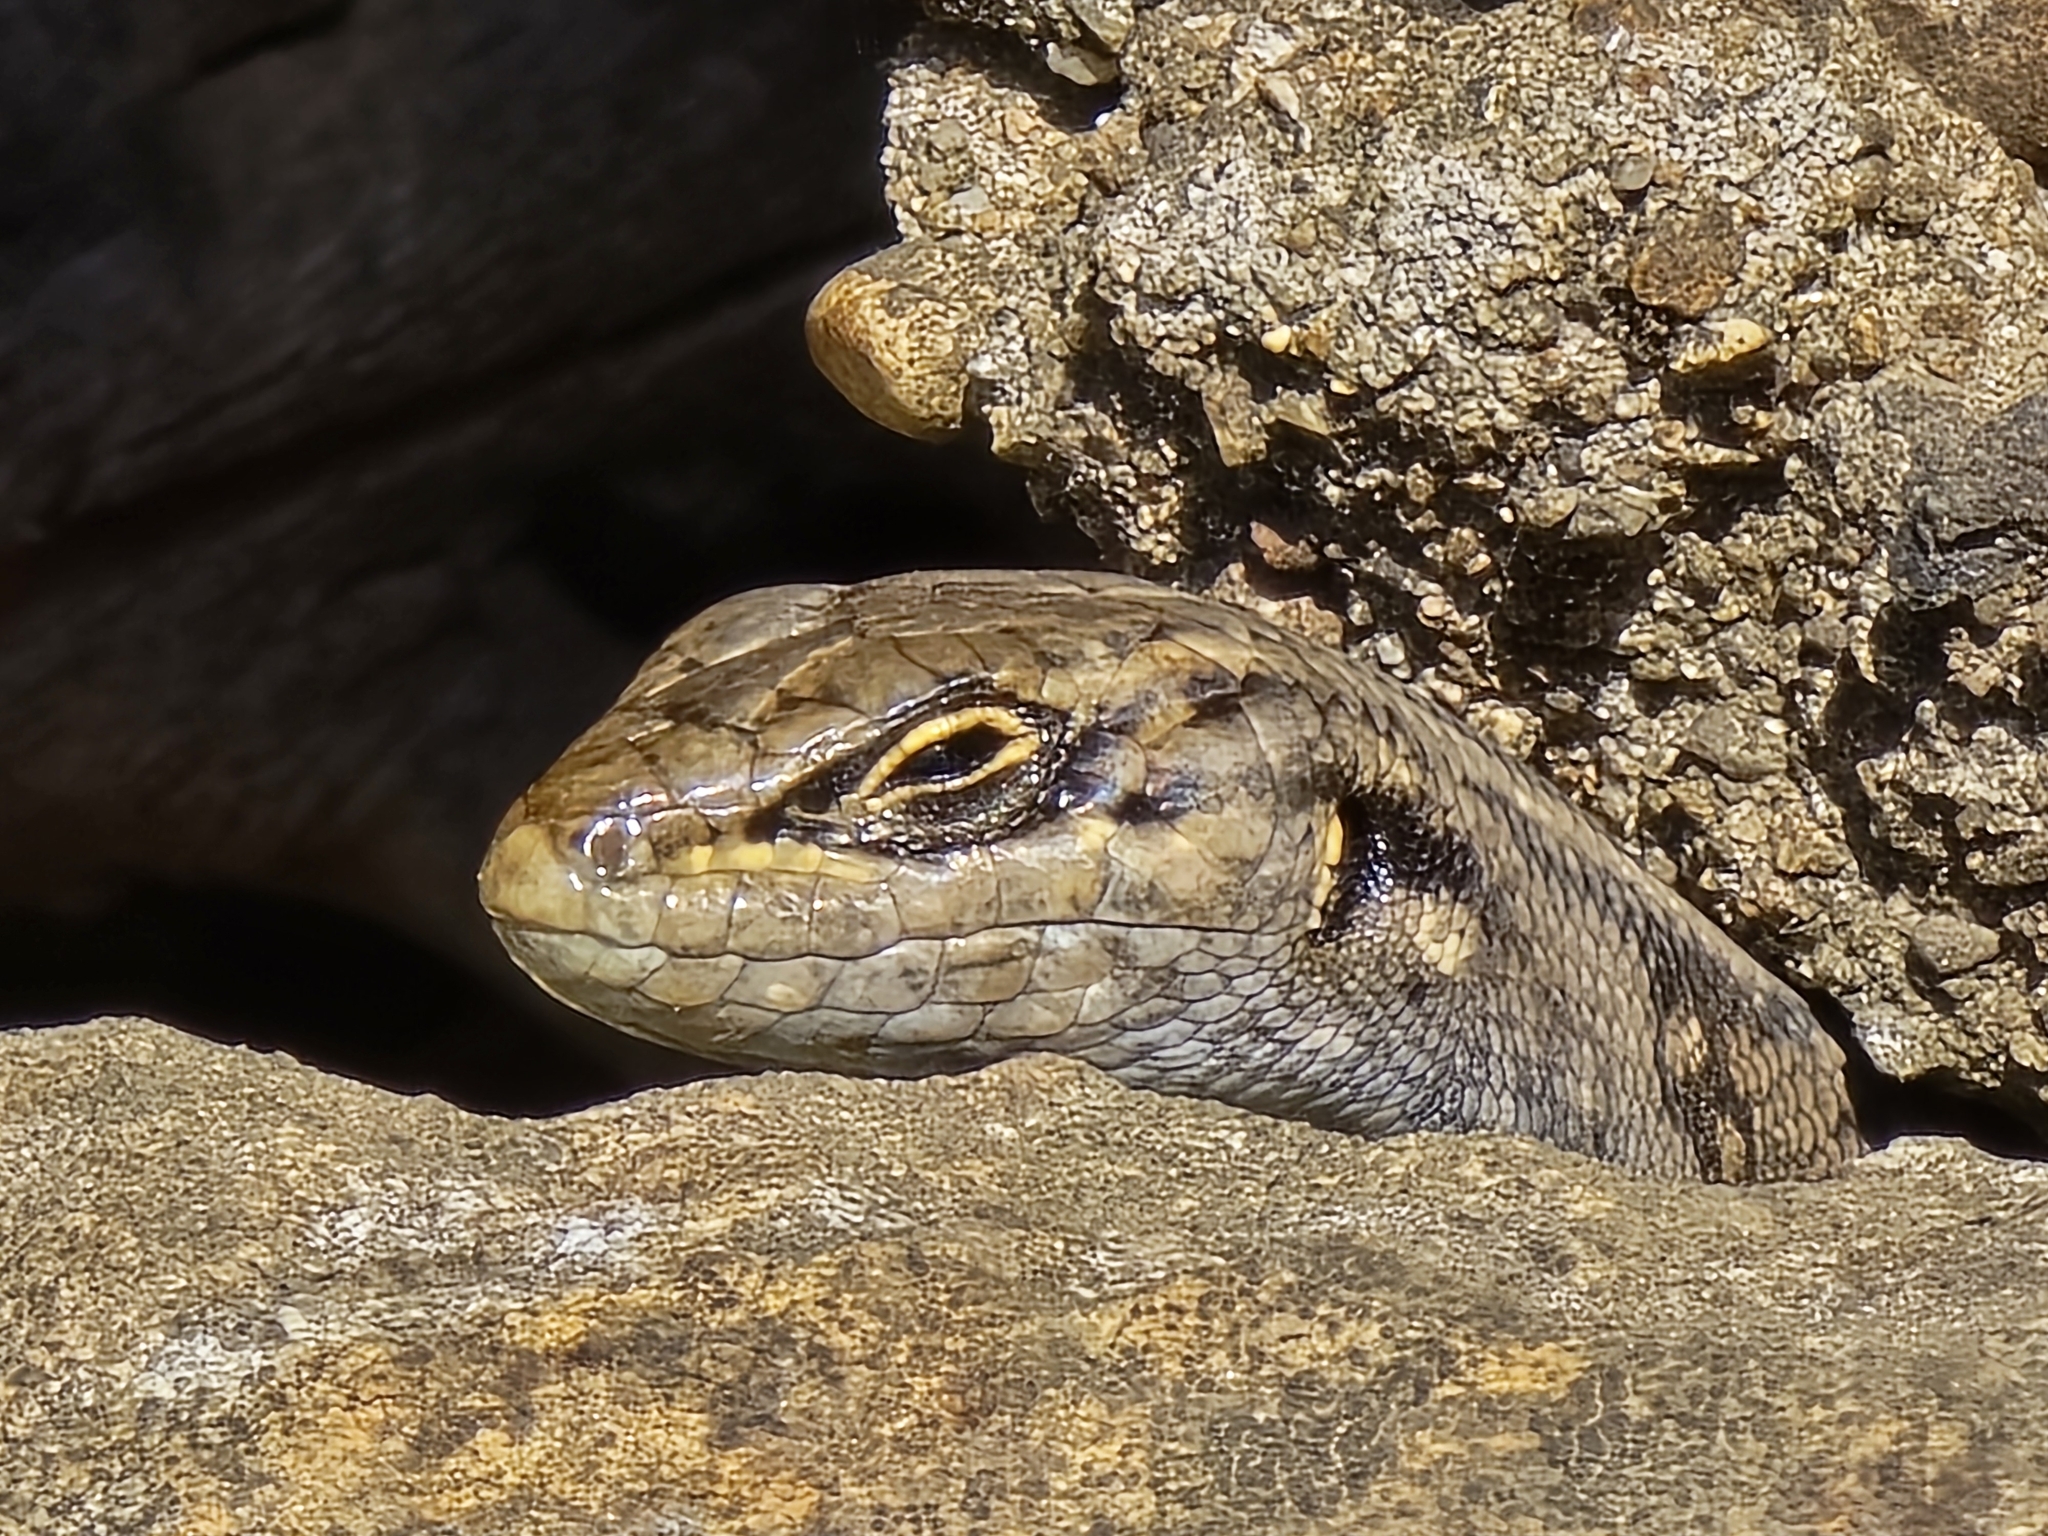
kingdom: Animalia
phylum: Chordata
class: Squamata
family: Scincidae
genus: Liopholis
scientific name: Liopholis whitii
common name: White's rock-skink
